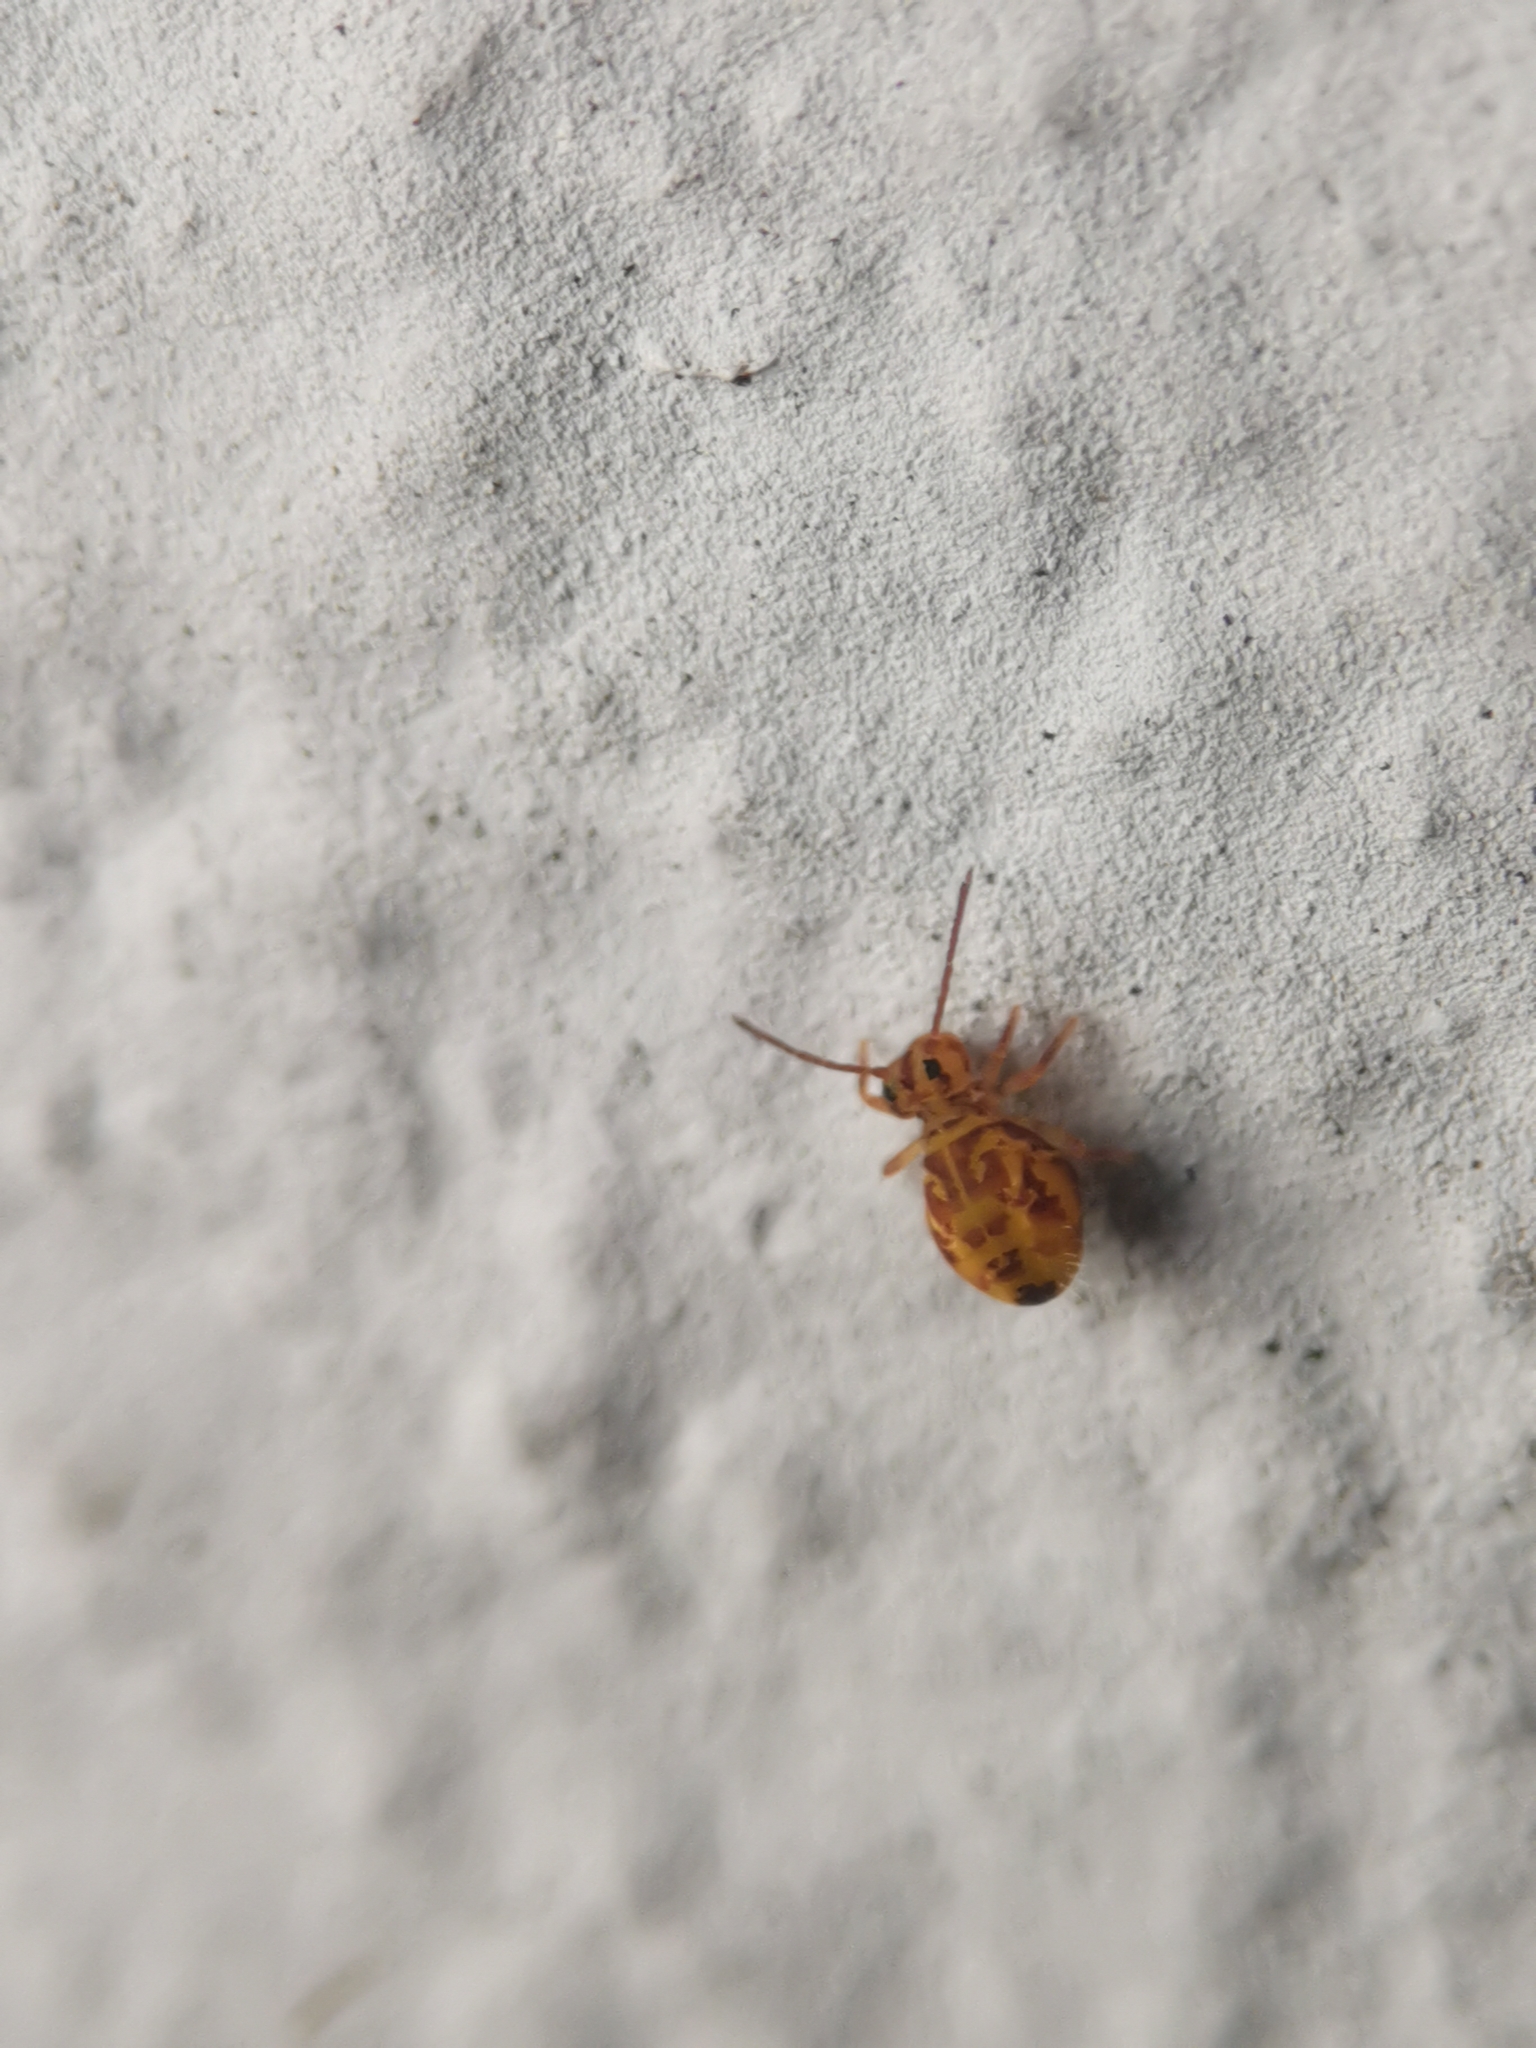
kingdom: Animalia
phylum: Arthropoda
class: Collembola
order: Symphypleona
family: Dicyrtomidae
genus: Dicyrtomina
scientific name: Dicyrtomina ornata
